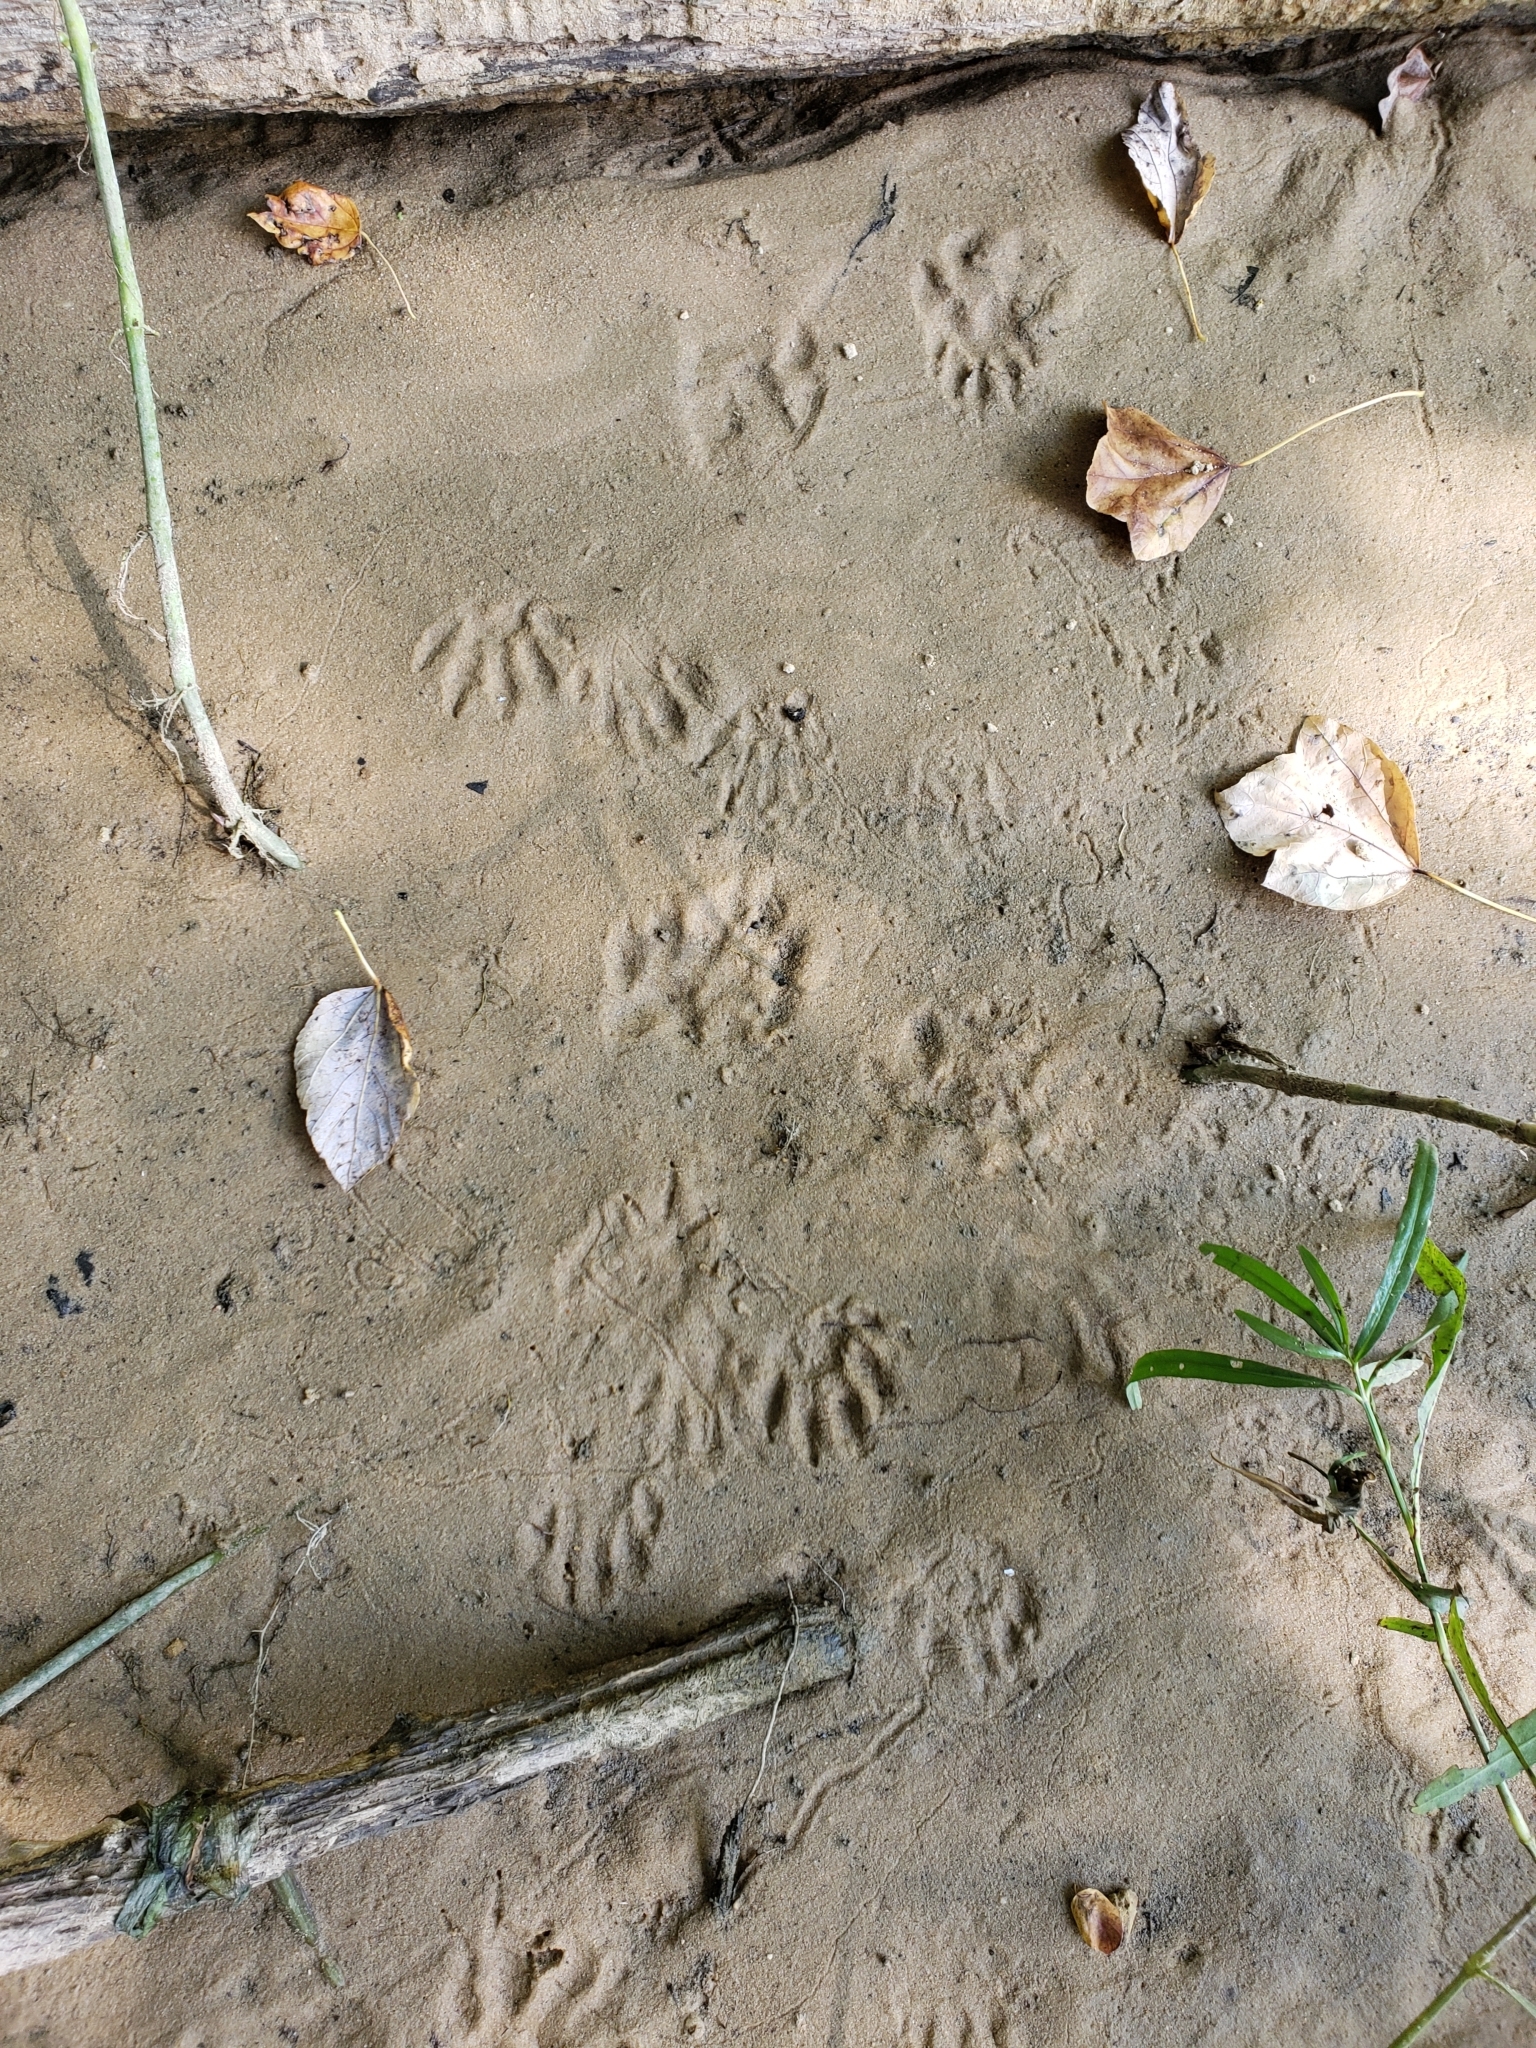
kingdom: Animalia
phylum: Chordata
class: Mammalia
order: Carnivora
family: Procyonidae
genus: Procyon
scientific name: Procyon lotor
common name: Raccoon
